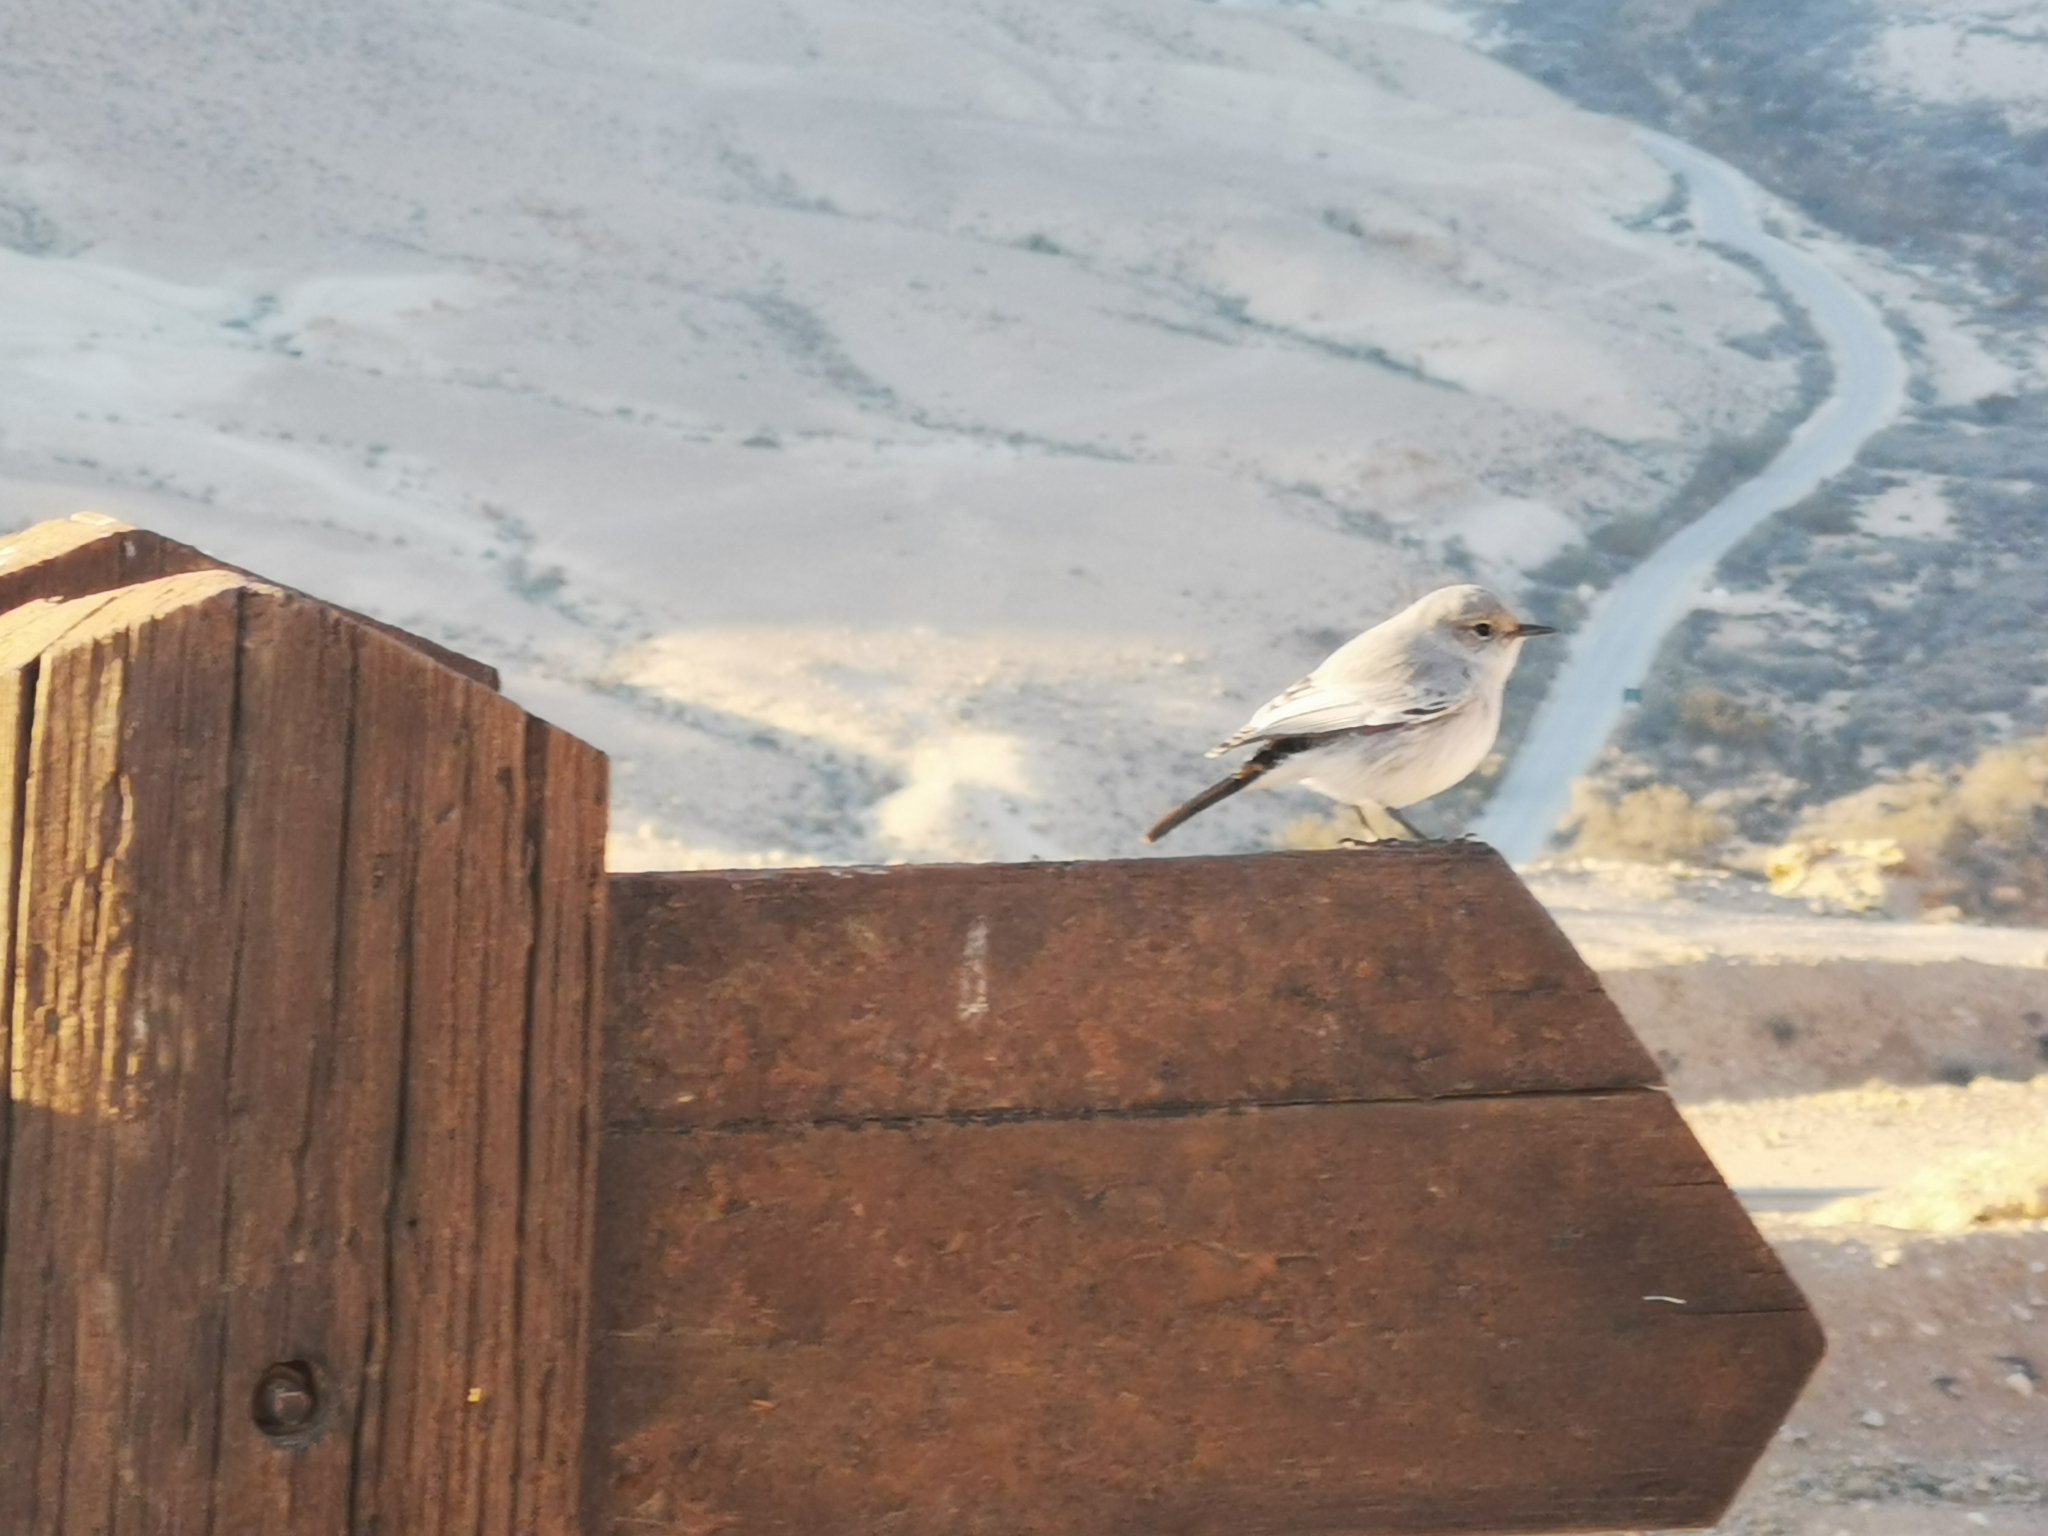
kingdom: Animalia
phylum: Chordata
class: Aves
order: Passeriformes
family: Muscicapidae
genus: Oenanthe
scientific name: Oenanthe melanura
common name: Blackstart
